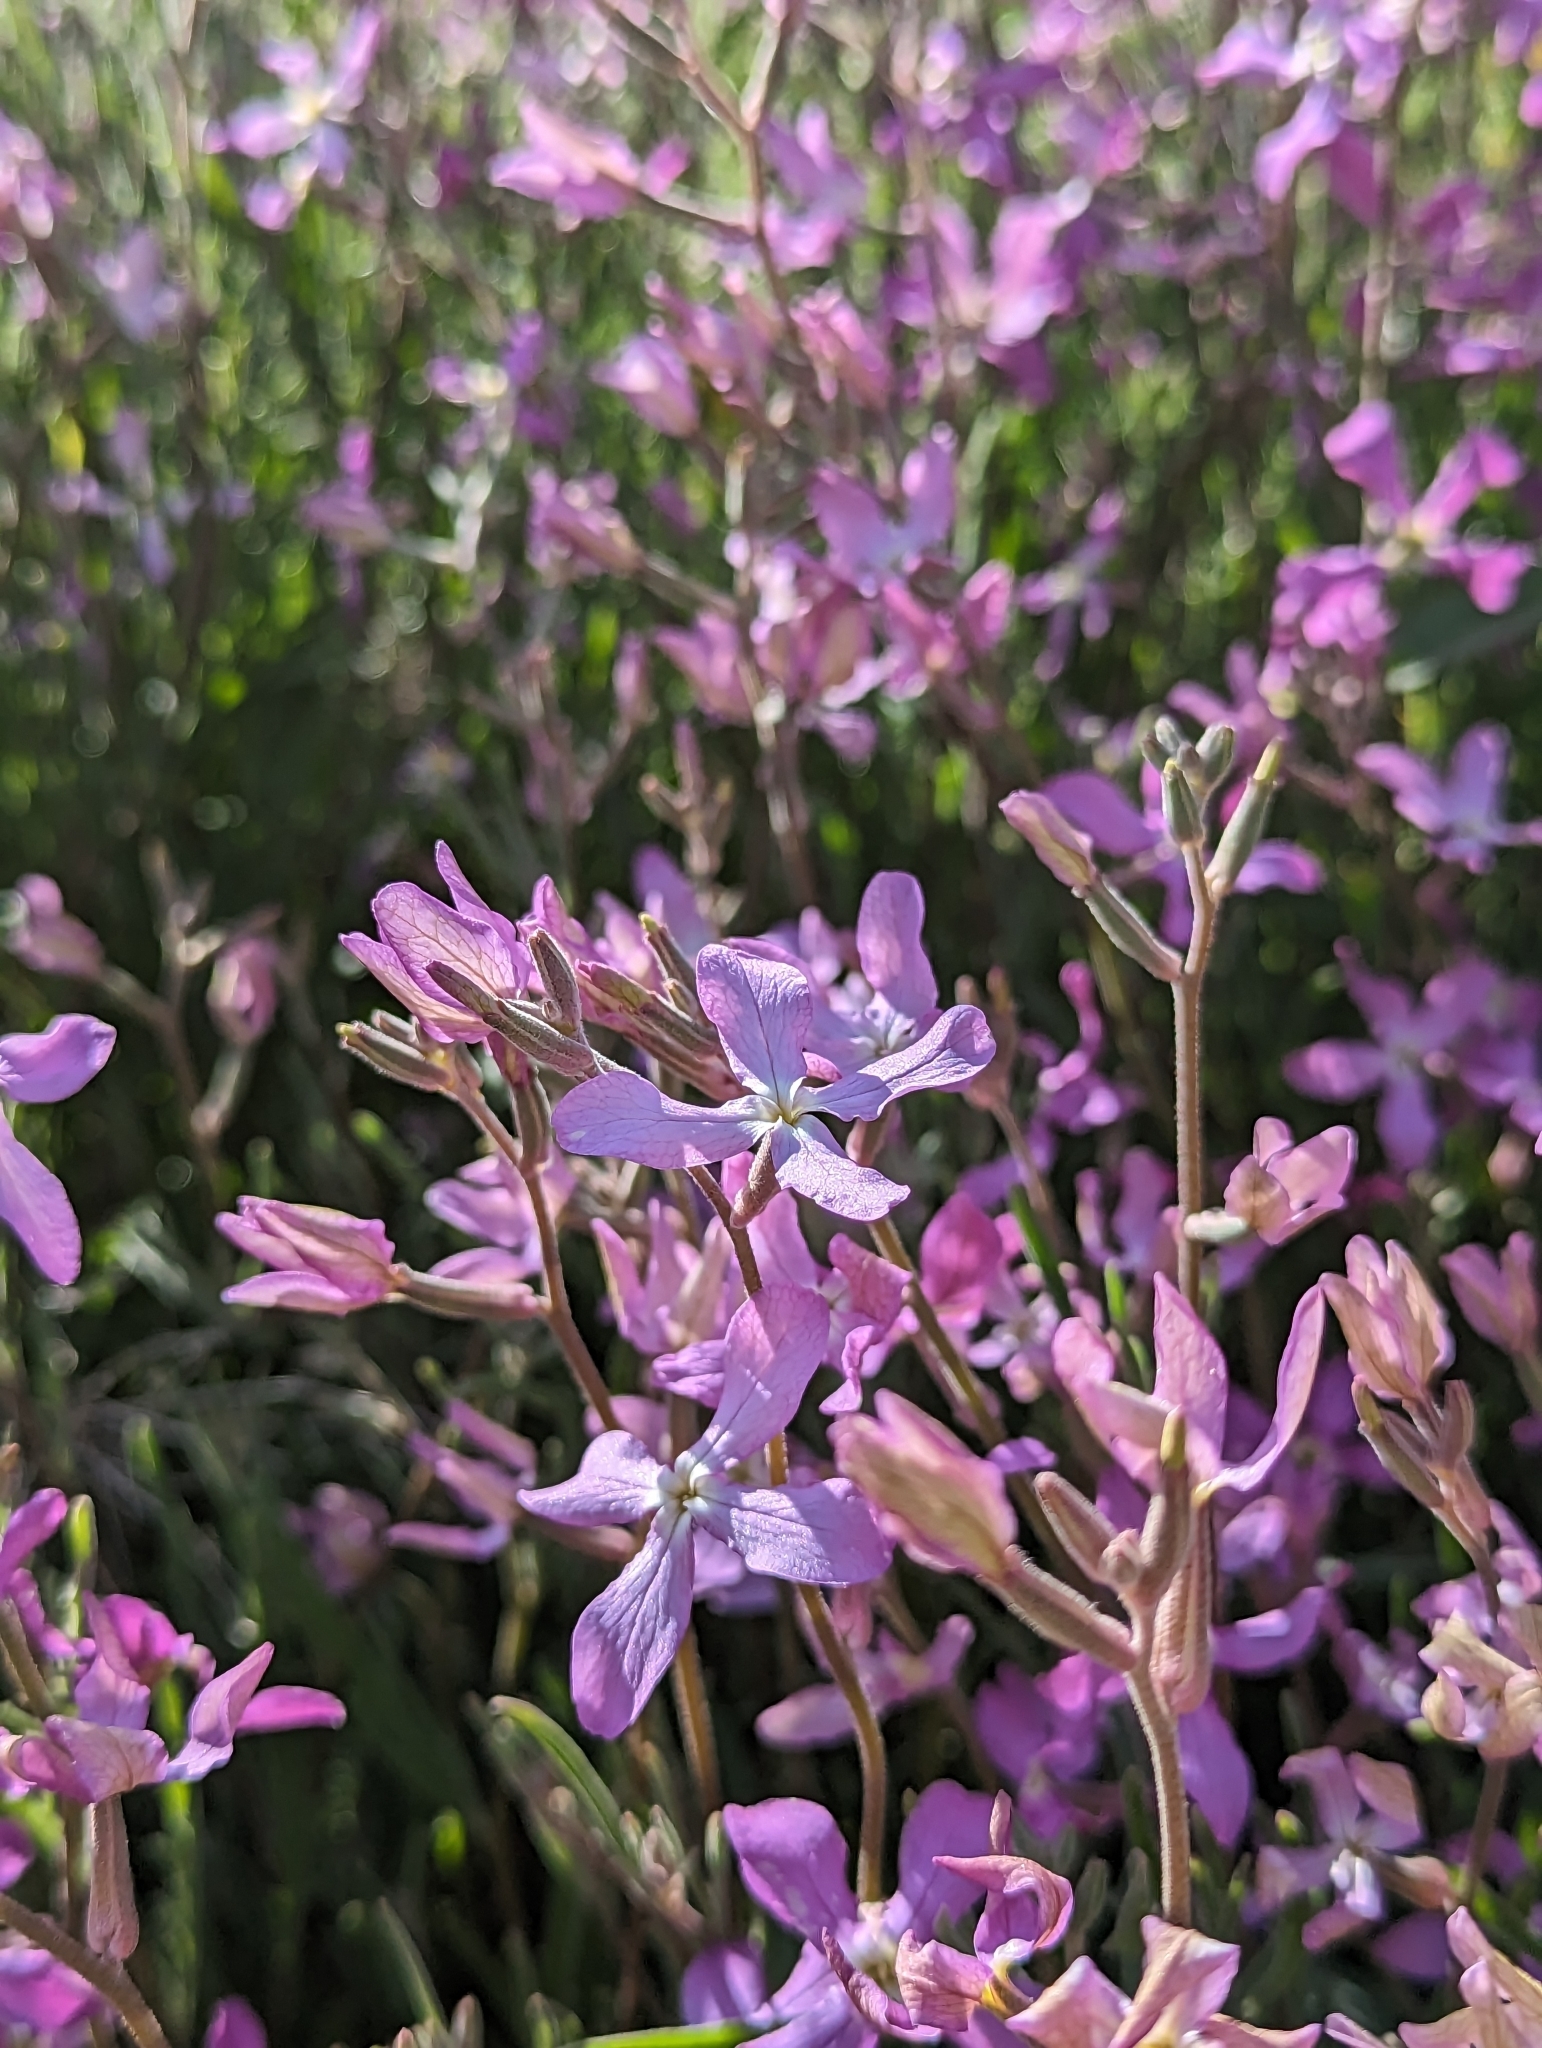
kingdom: Plantae
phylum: Tracheophyta
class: Magnoliopsida
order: Brassicales
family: Brassicaceae
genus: Matthiola
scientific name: Matthiola longipetala
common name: Night-scented stock
